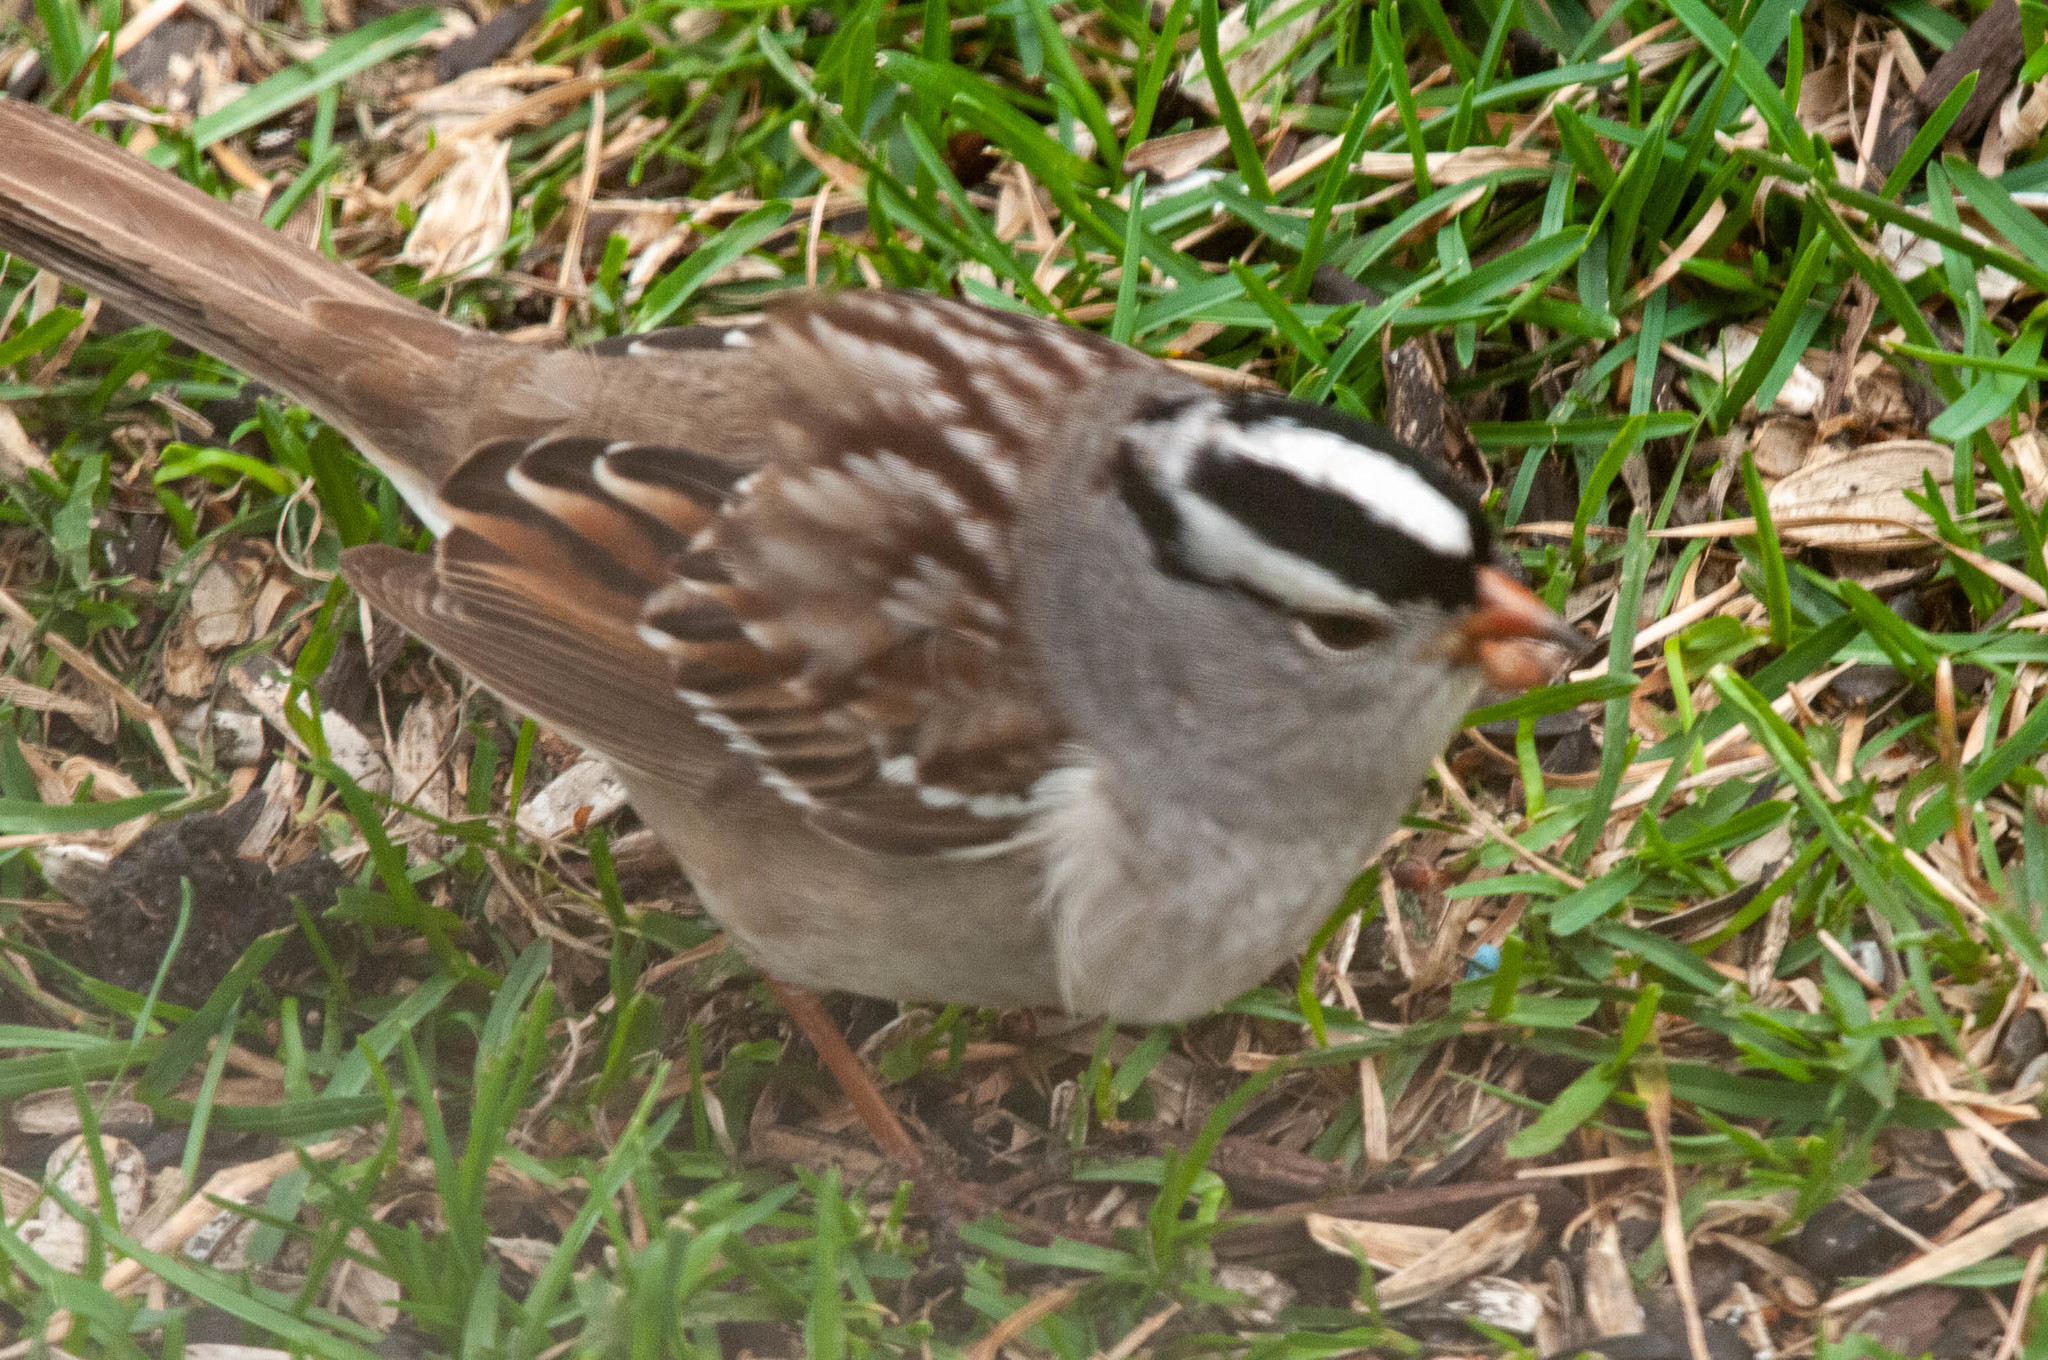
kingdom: Animalia
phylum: Chordata
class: Aves
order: Passeriformes
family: Passerellidae
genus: Zonotrichia
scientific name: Zonotrichia leucophrys
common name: White-crowned sparrow
